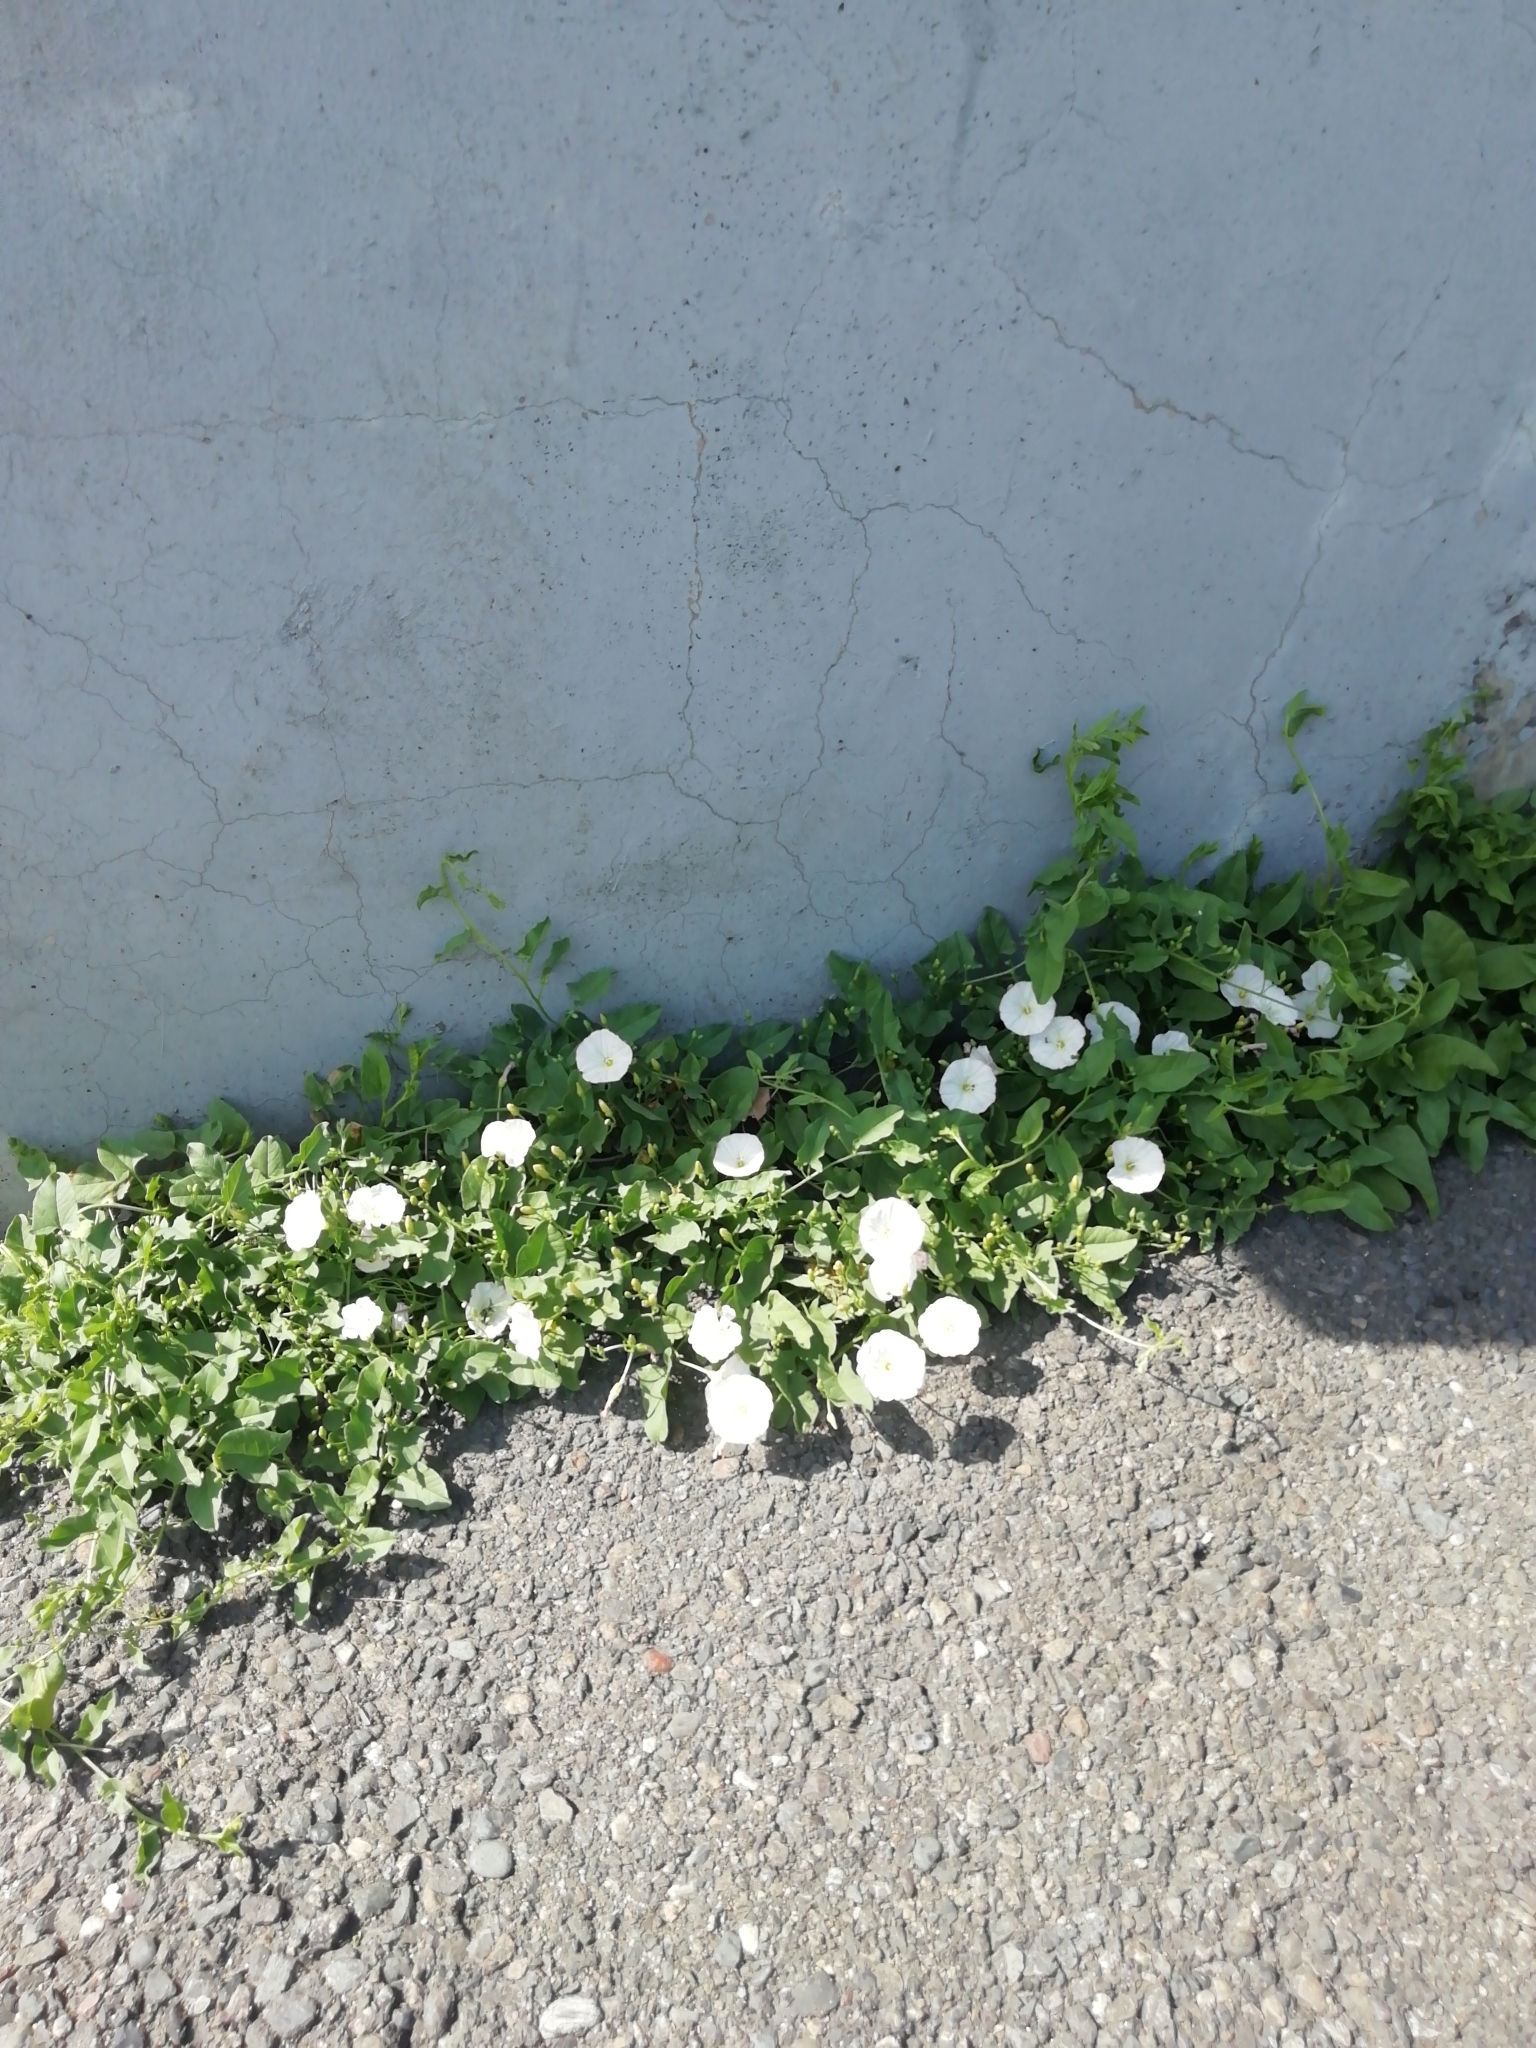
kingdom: Plantae
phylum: Tracheophyta
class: Magnoliopsida
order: Solanales
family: Convolvulaceae
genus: Convolvulus
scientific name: Convolvulus arvensis
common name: Field bindweed
